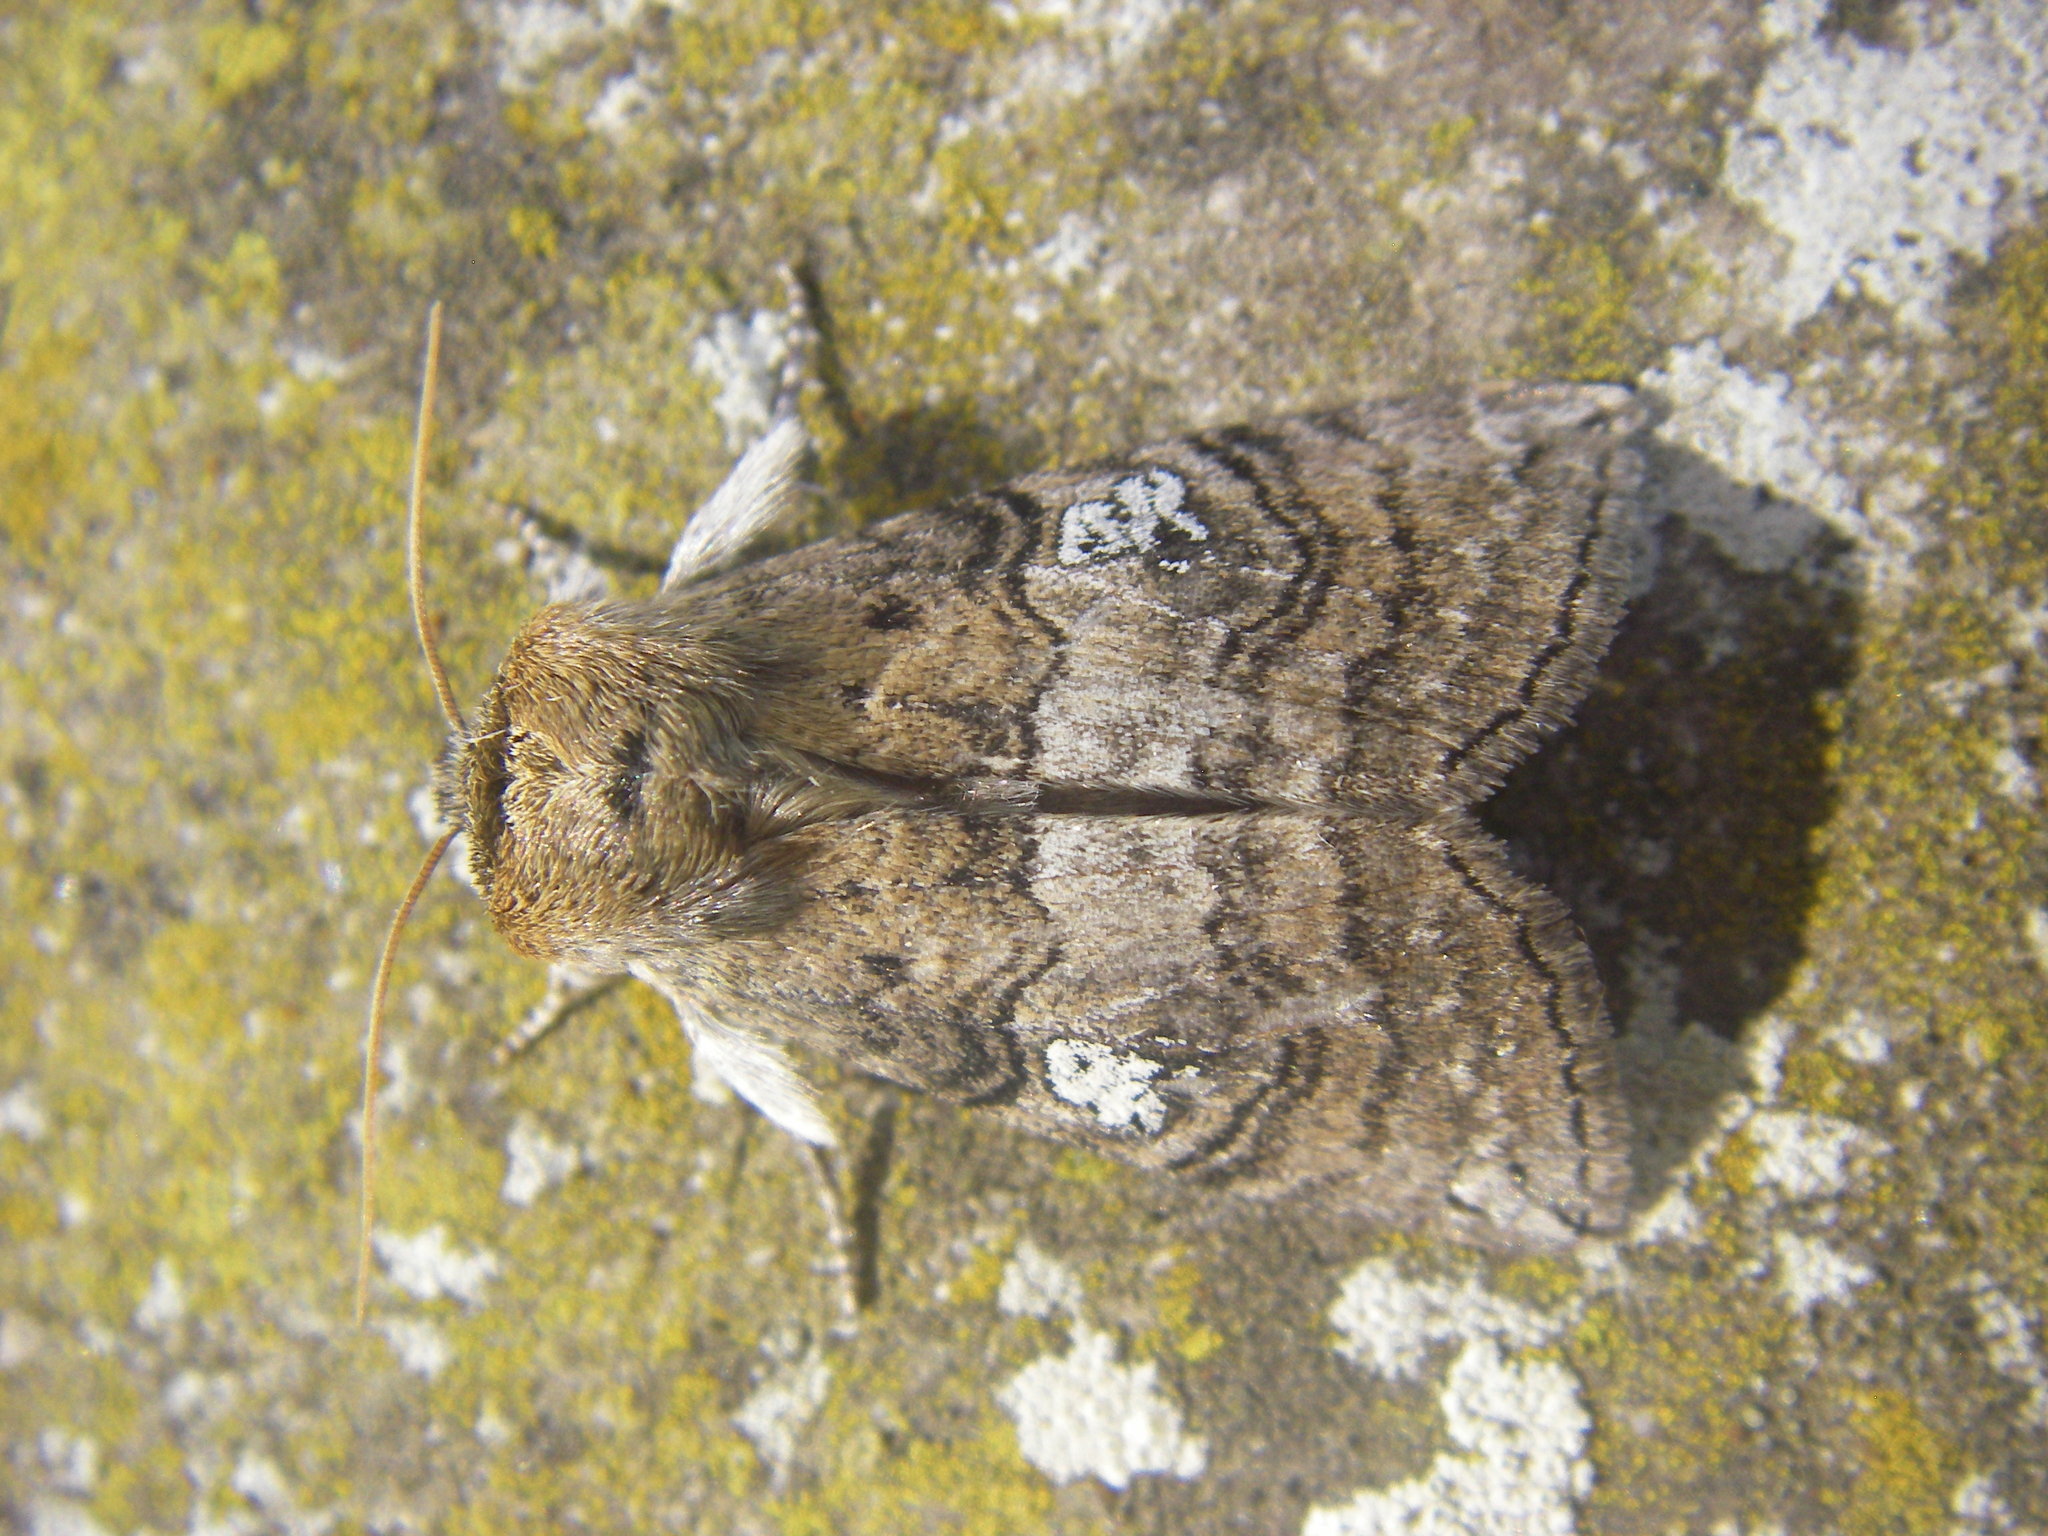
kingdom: Animalia
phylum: Arthropoda
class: Insecta
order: Lepidoptera
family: Drepanidae
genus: Tethea
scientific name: Tethea ocularis
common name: Figure of eighty
